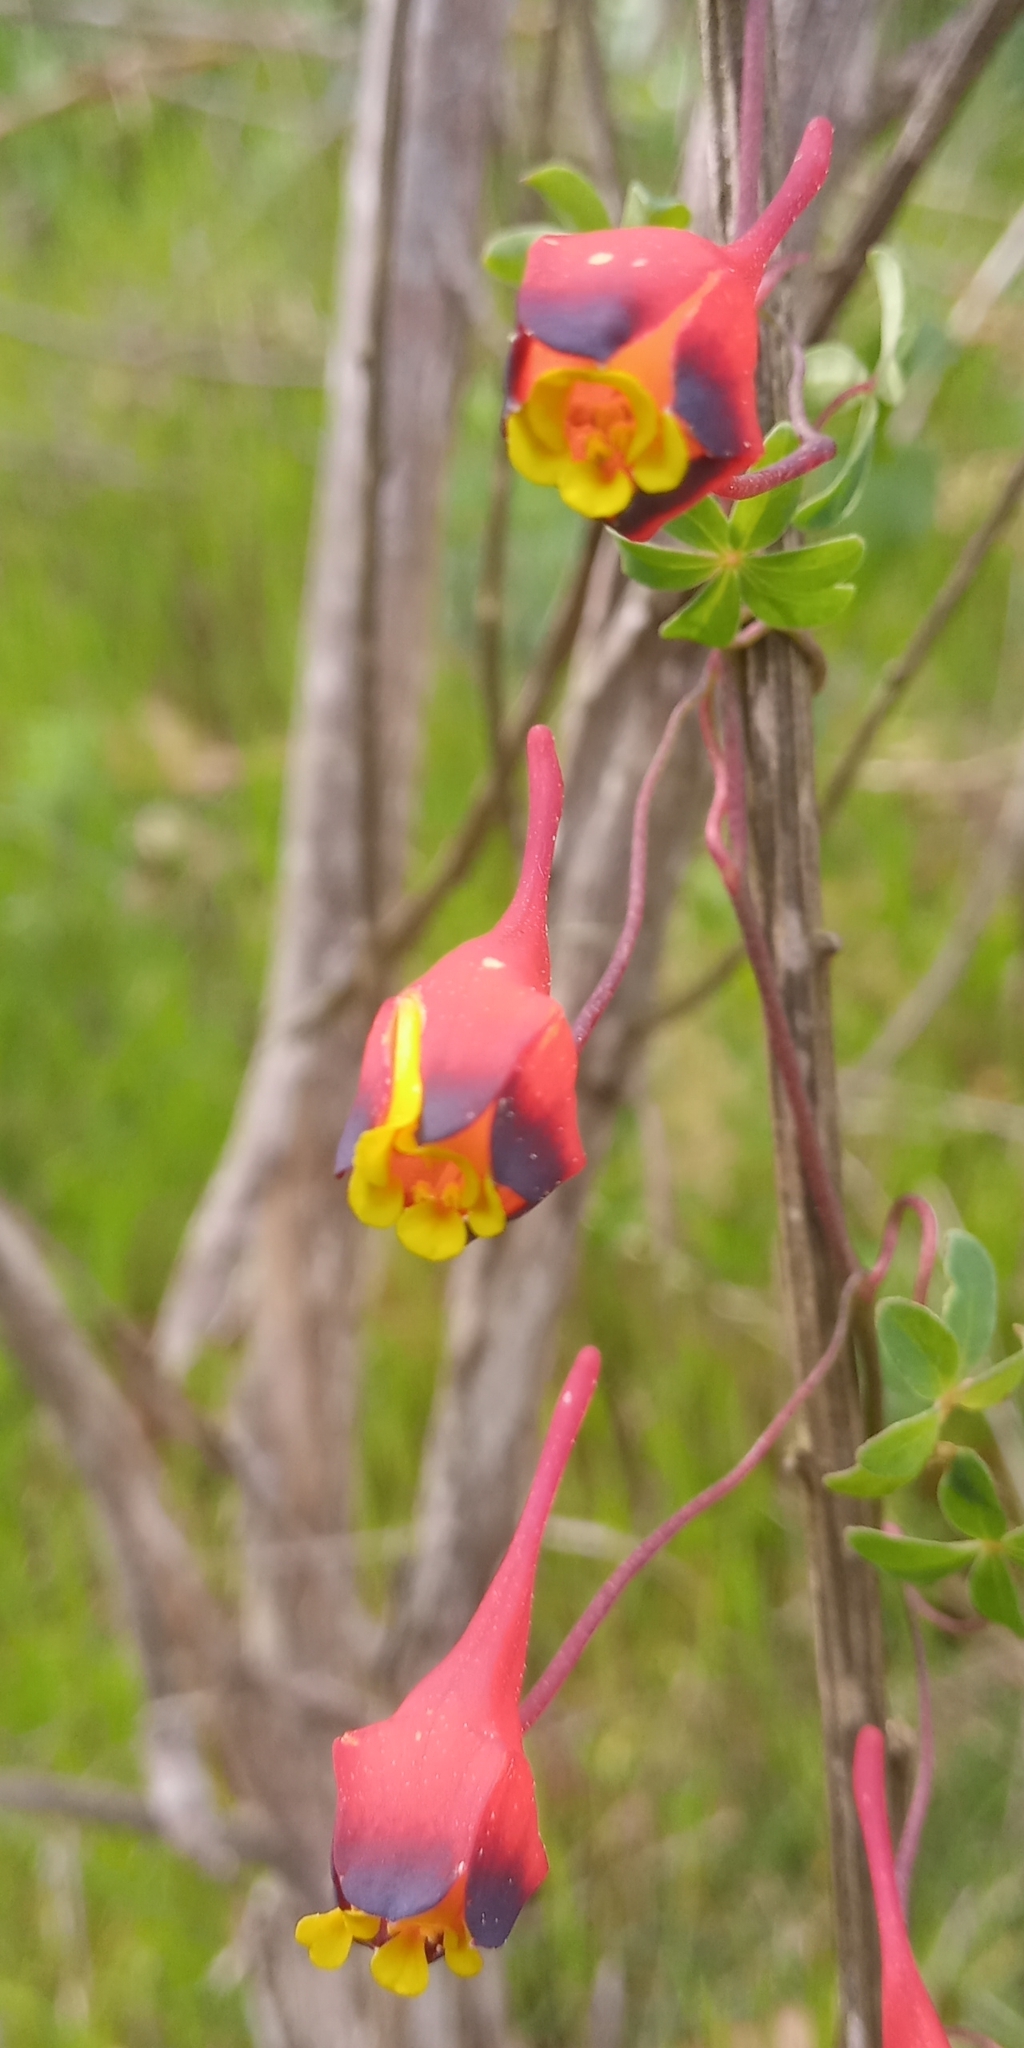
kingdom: Plantae
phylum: Tracheophyta
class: Magnoliopsida
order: Brassicales
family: Tropaeolaceae
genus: Tropaeolum
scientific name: Tropaeolum tricolor
